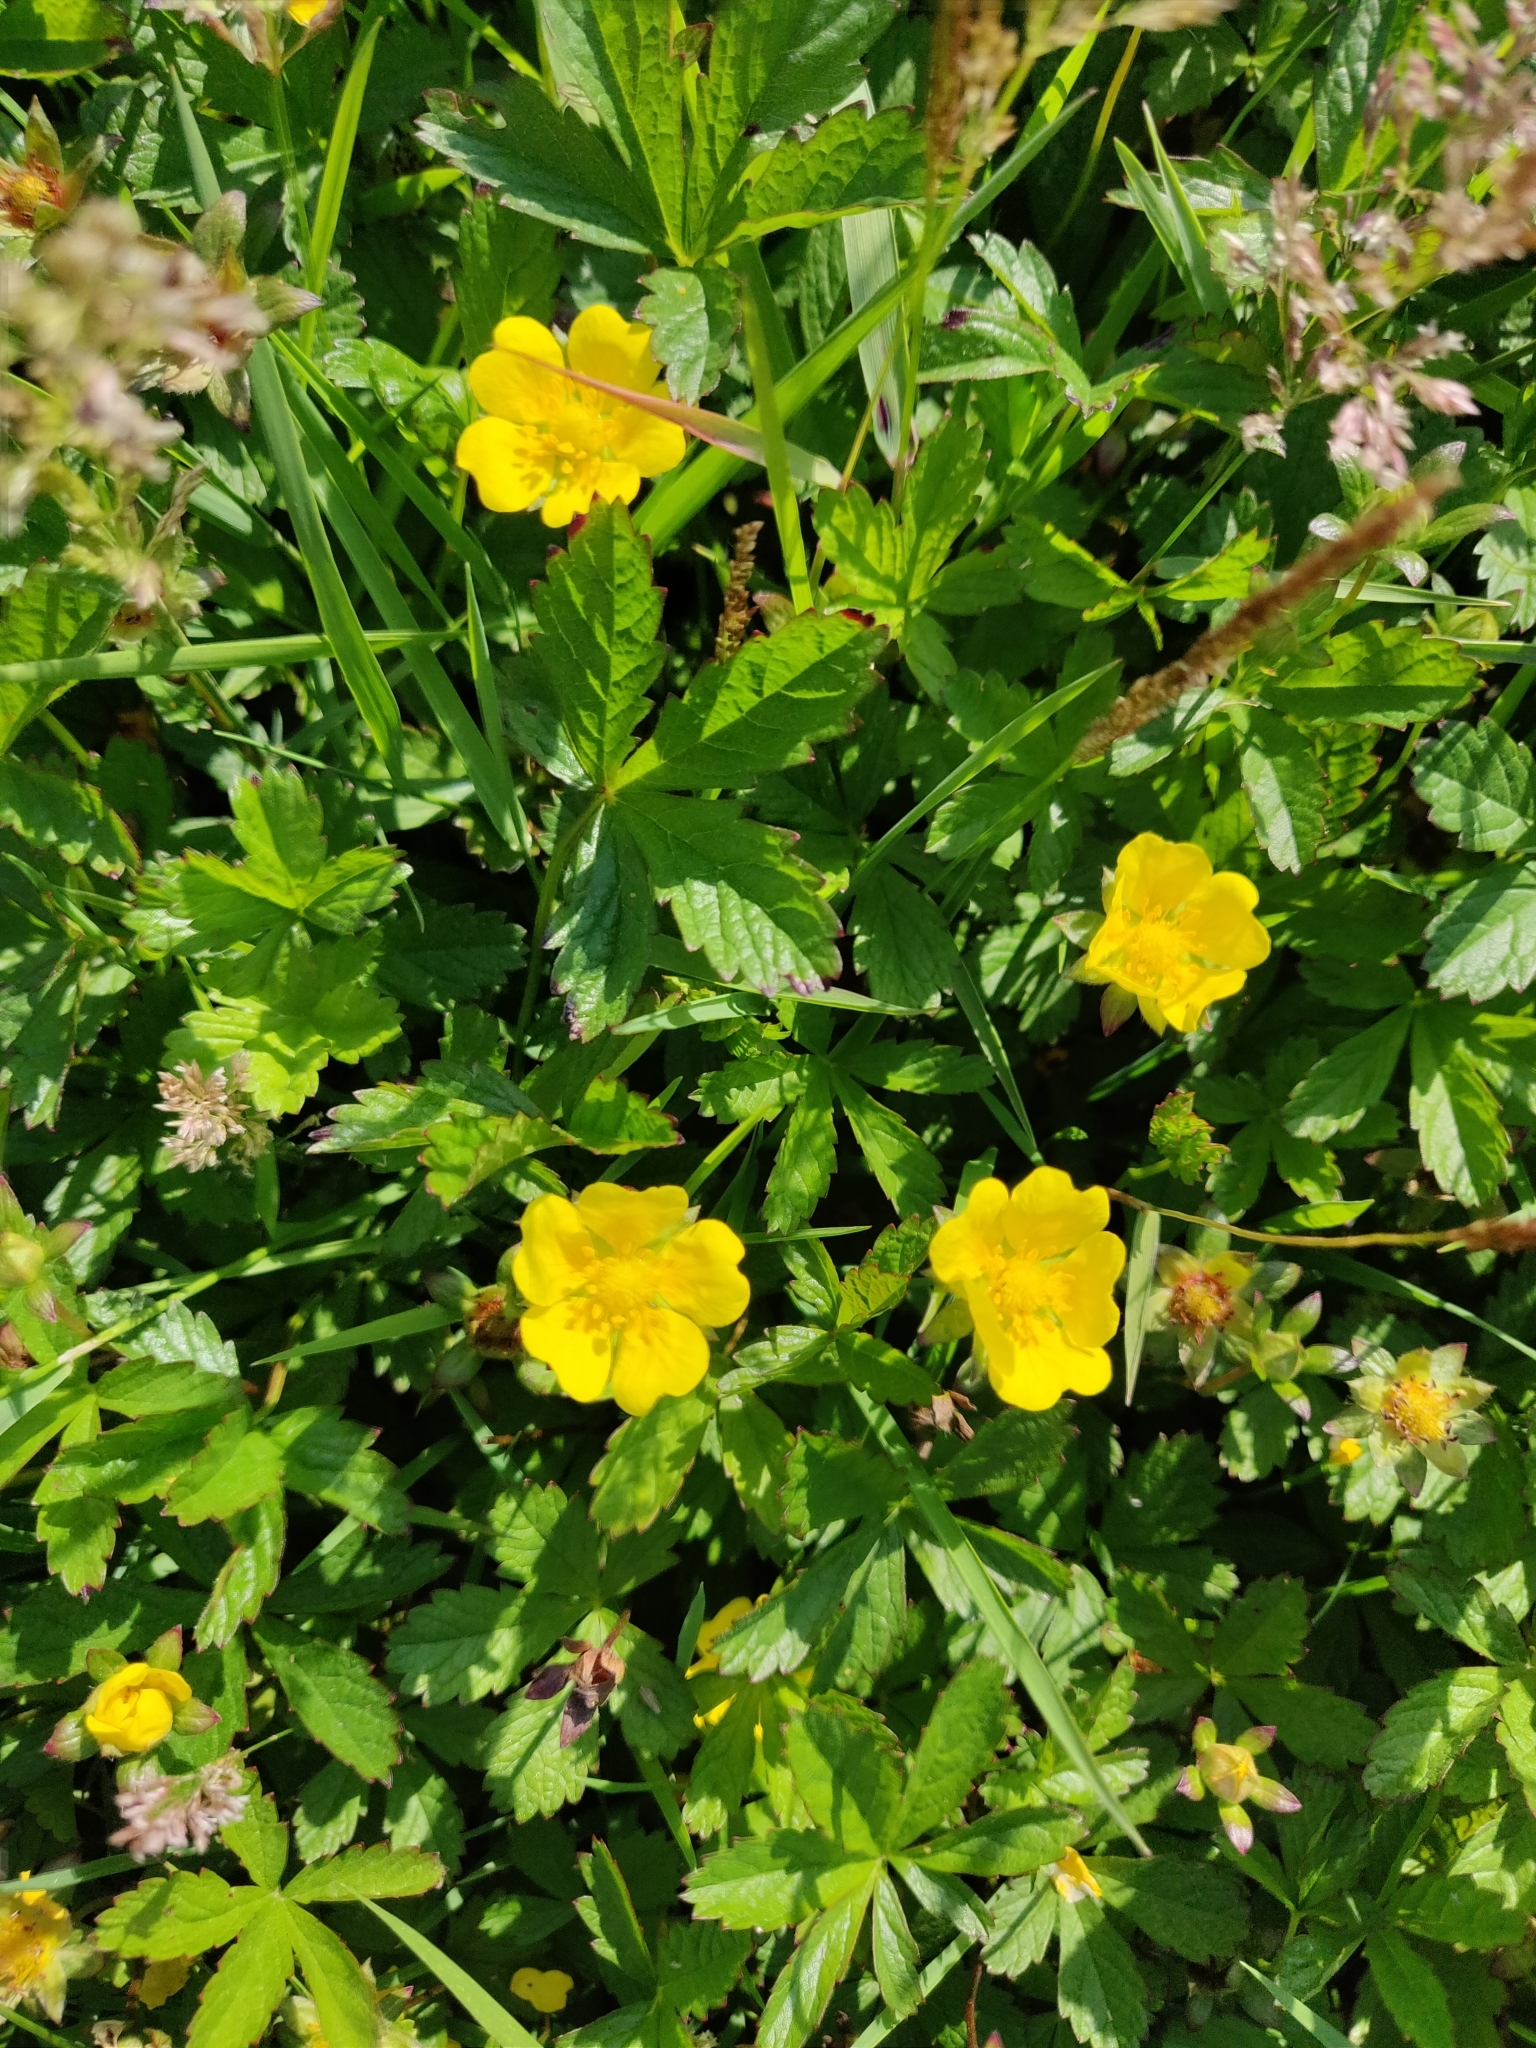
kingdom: Plantae
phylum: Tracheophyta
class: Magnoliopsida
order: Rosales
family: Rosaceae
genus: Potentilla
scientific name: Potentilla reptans
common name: Creeping cinquefoil
